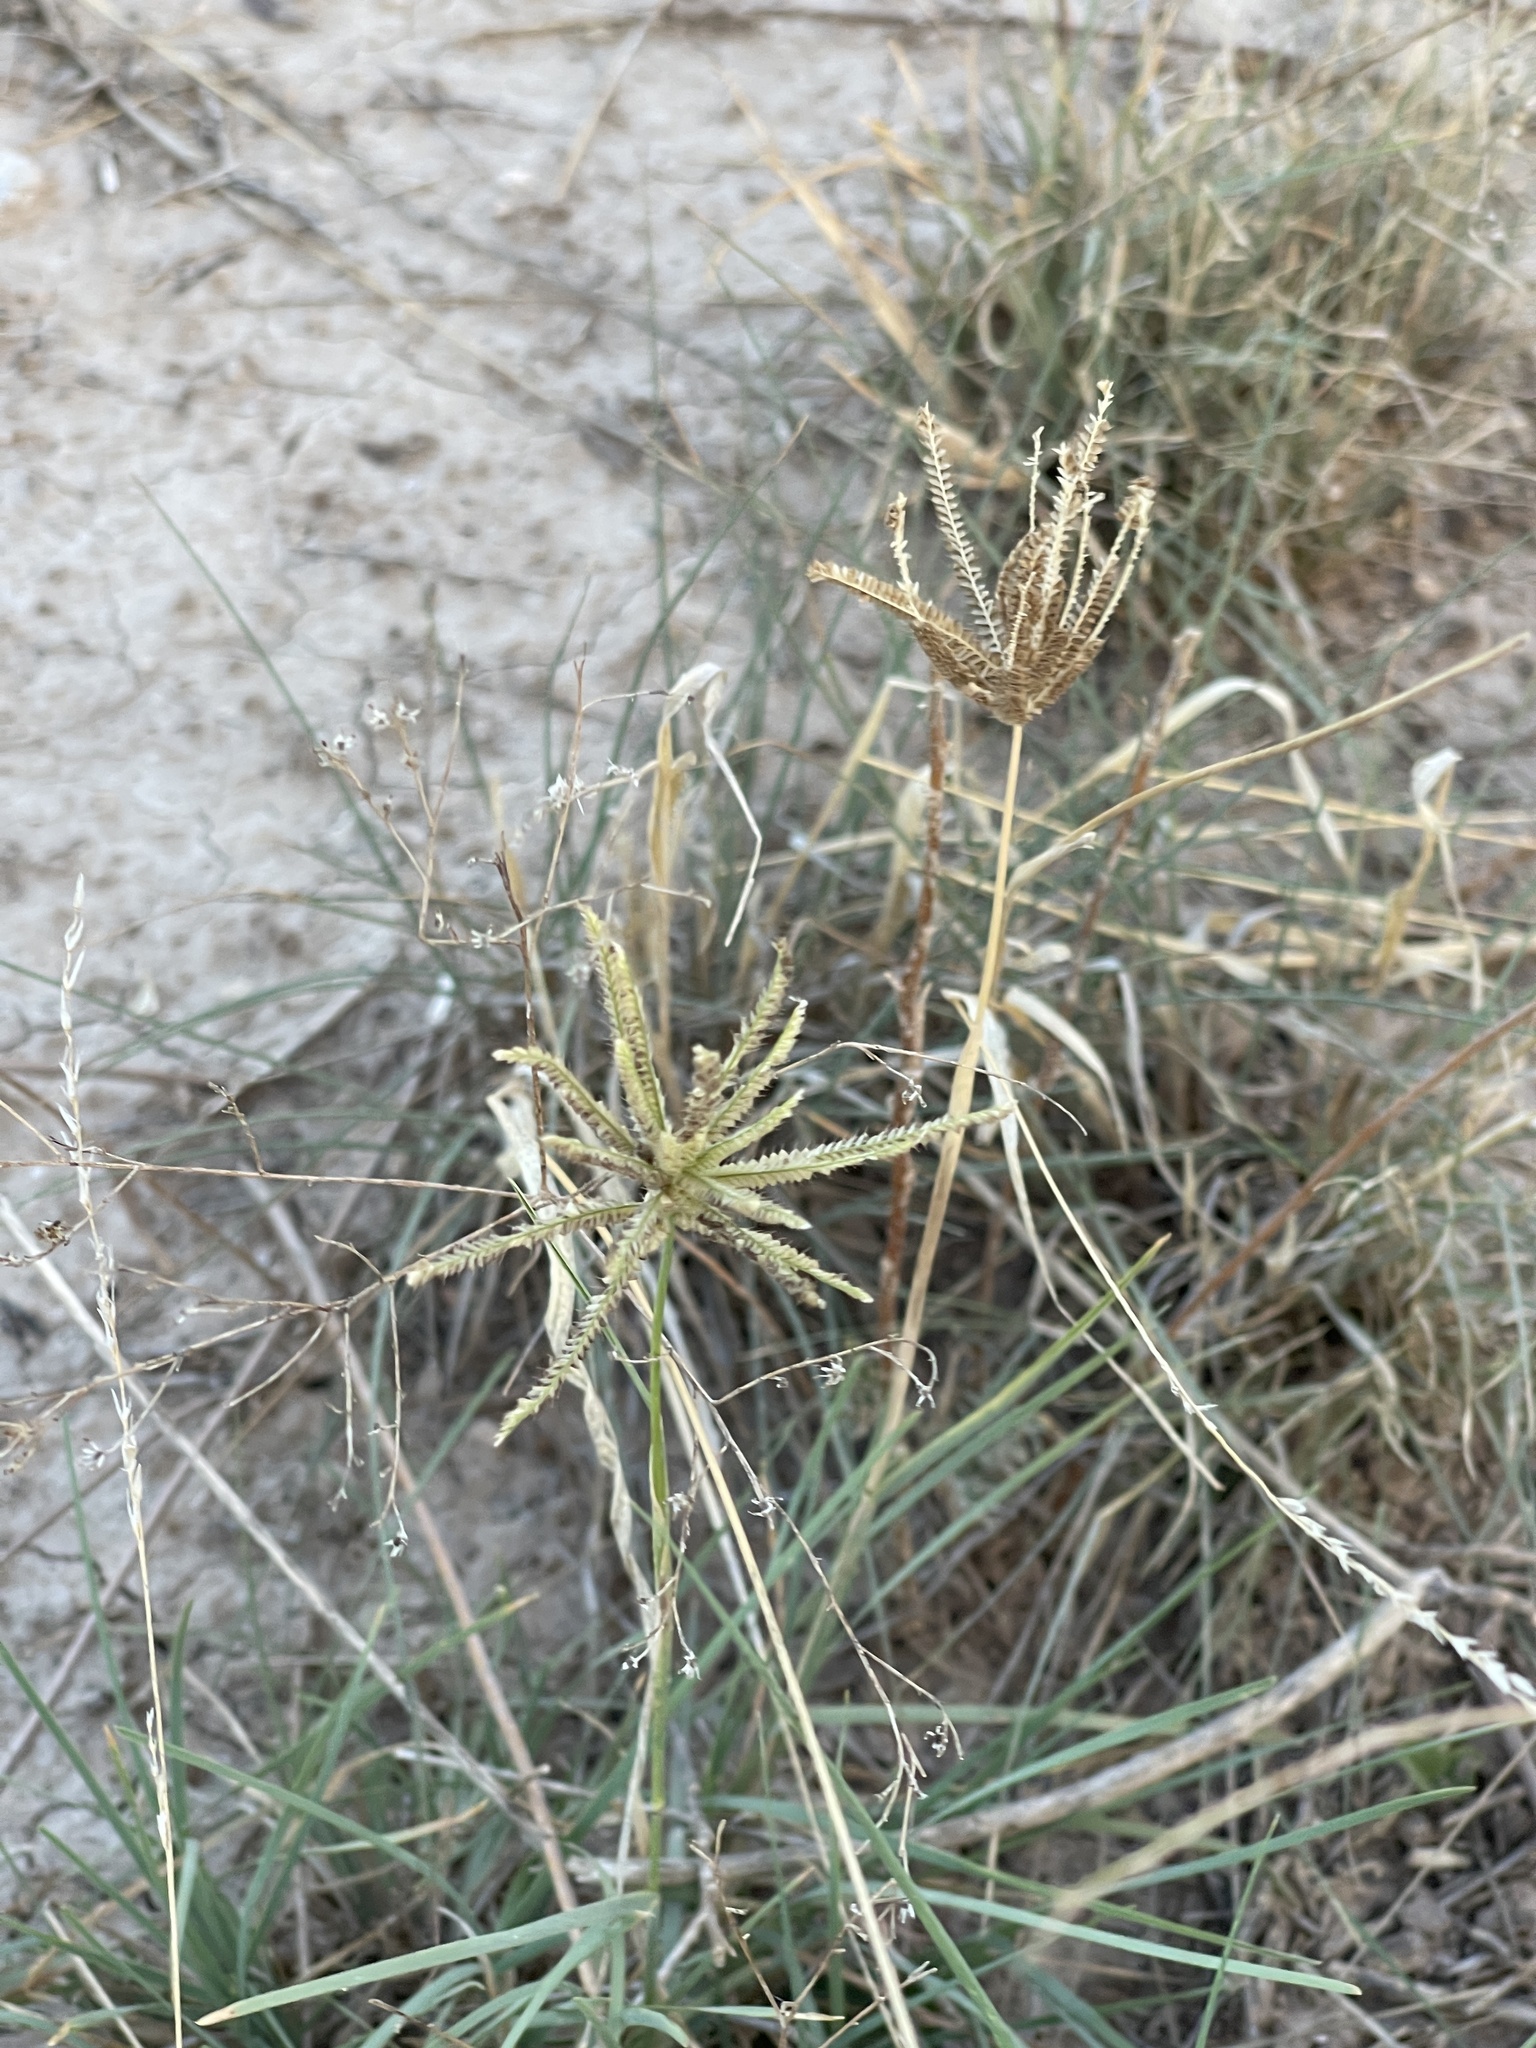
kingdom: Plantae
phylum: Tracheophyta
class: Liliopsida
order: Poales
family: Poaceae
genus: Chloris
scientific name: Chloris cucullata
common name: Hooded windmill grass
